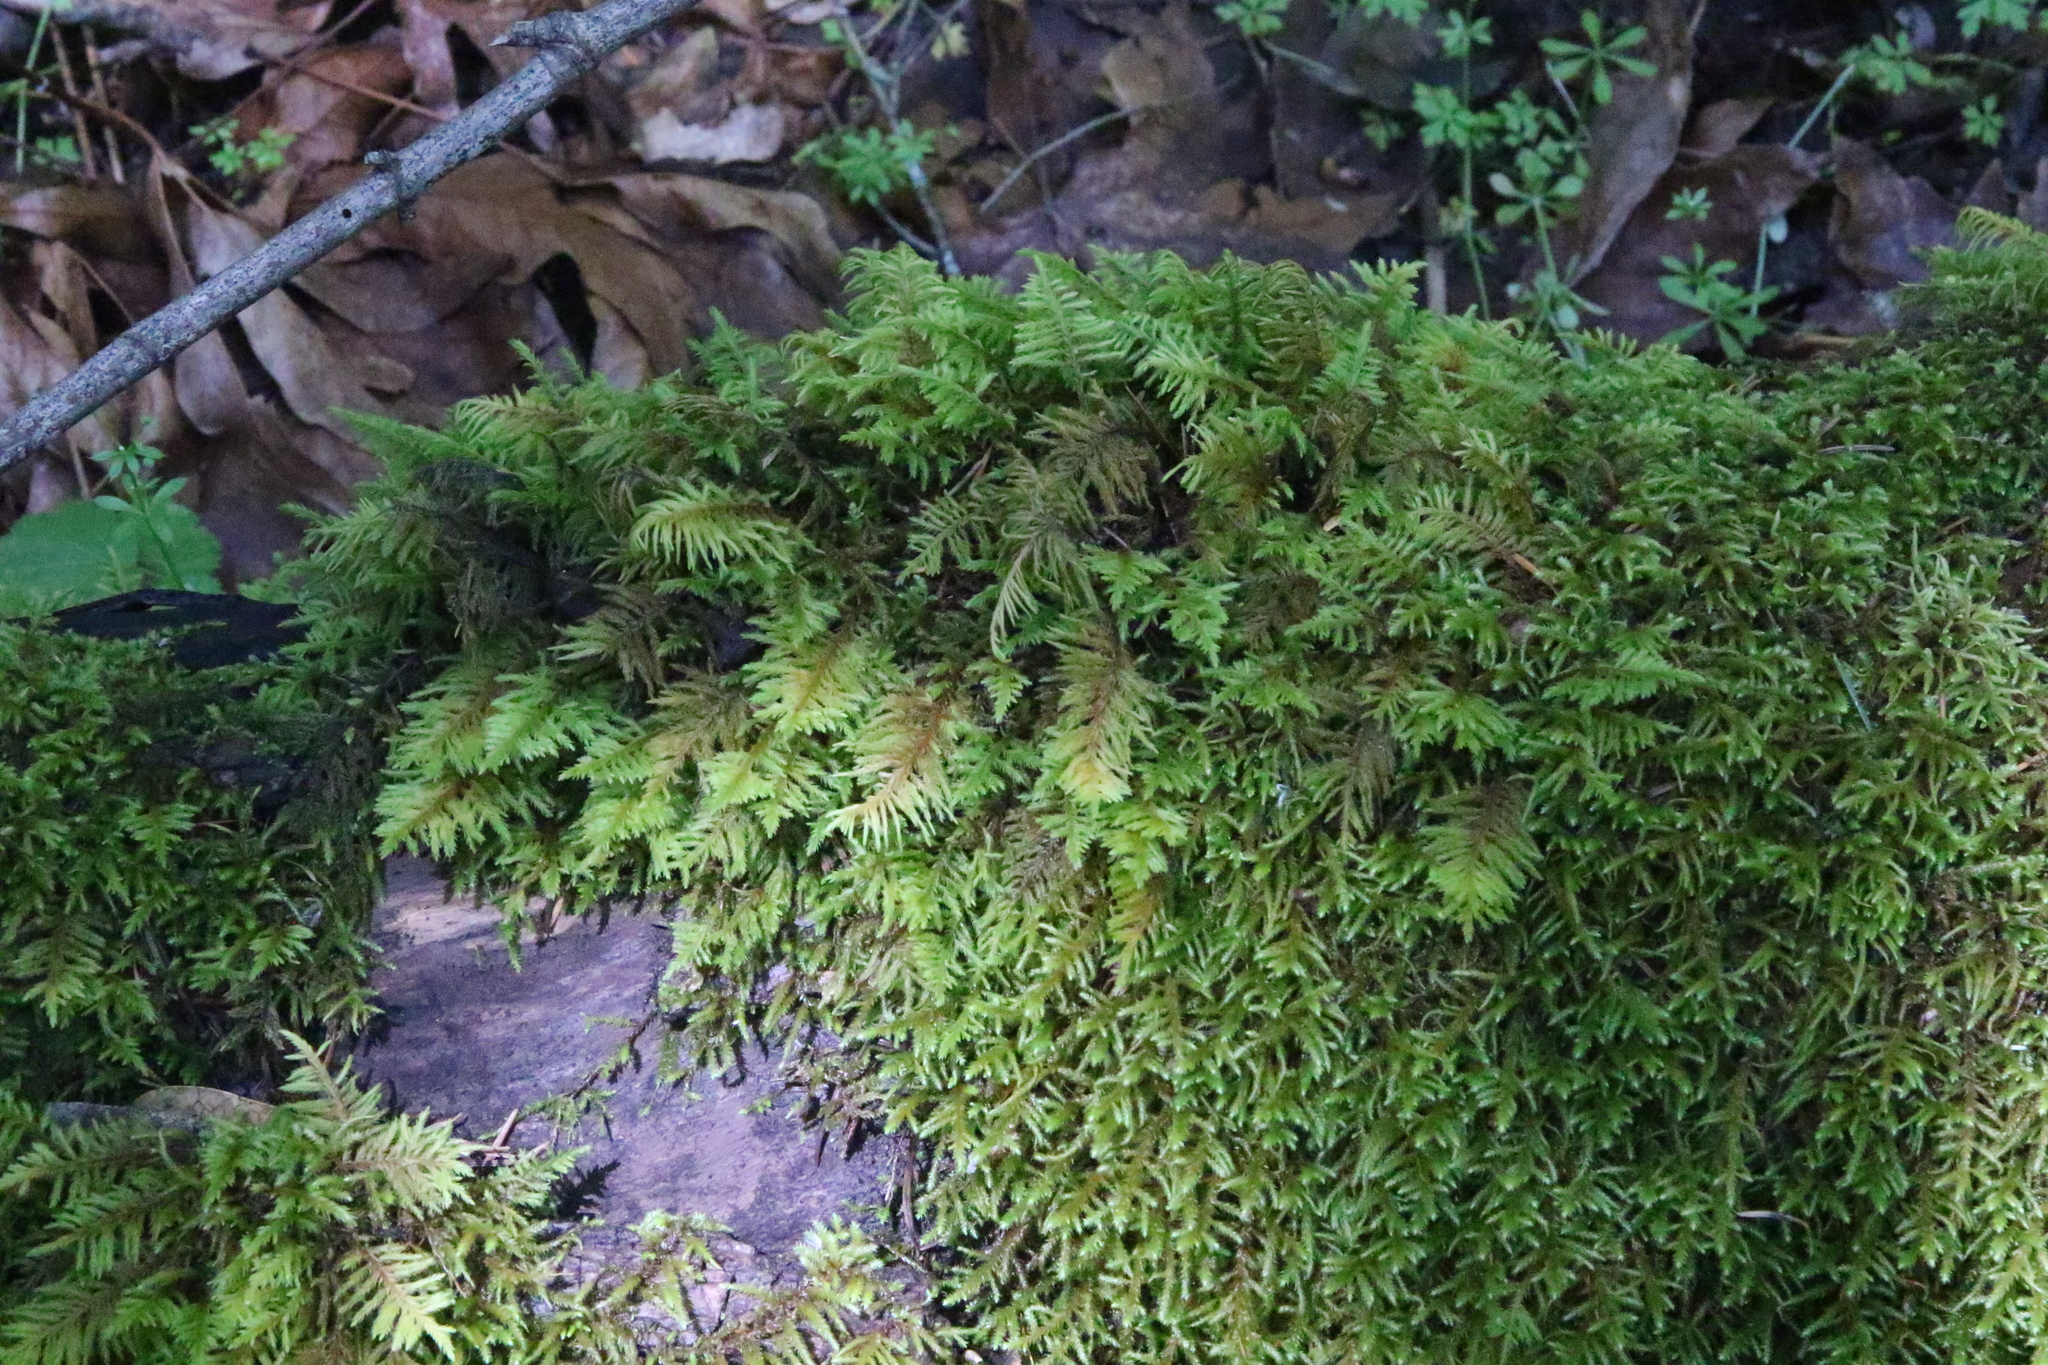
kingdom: Plantae
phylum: Bryophyta
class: Bryopsida
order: Hypnales
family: Cryphaeaceae
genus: Dendroalsia
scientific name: Dendroalsia abietina
